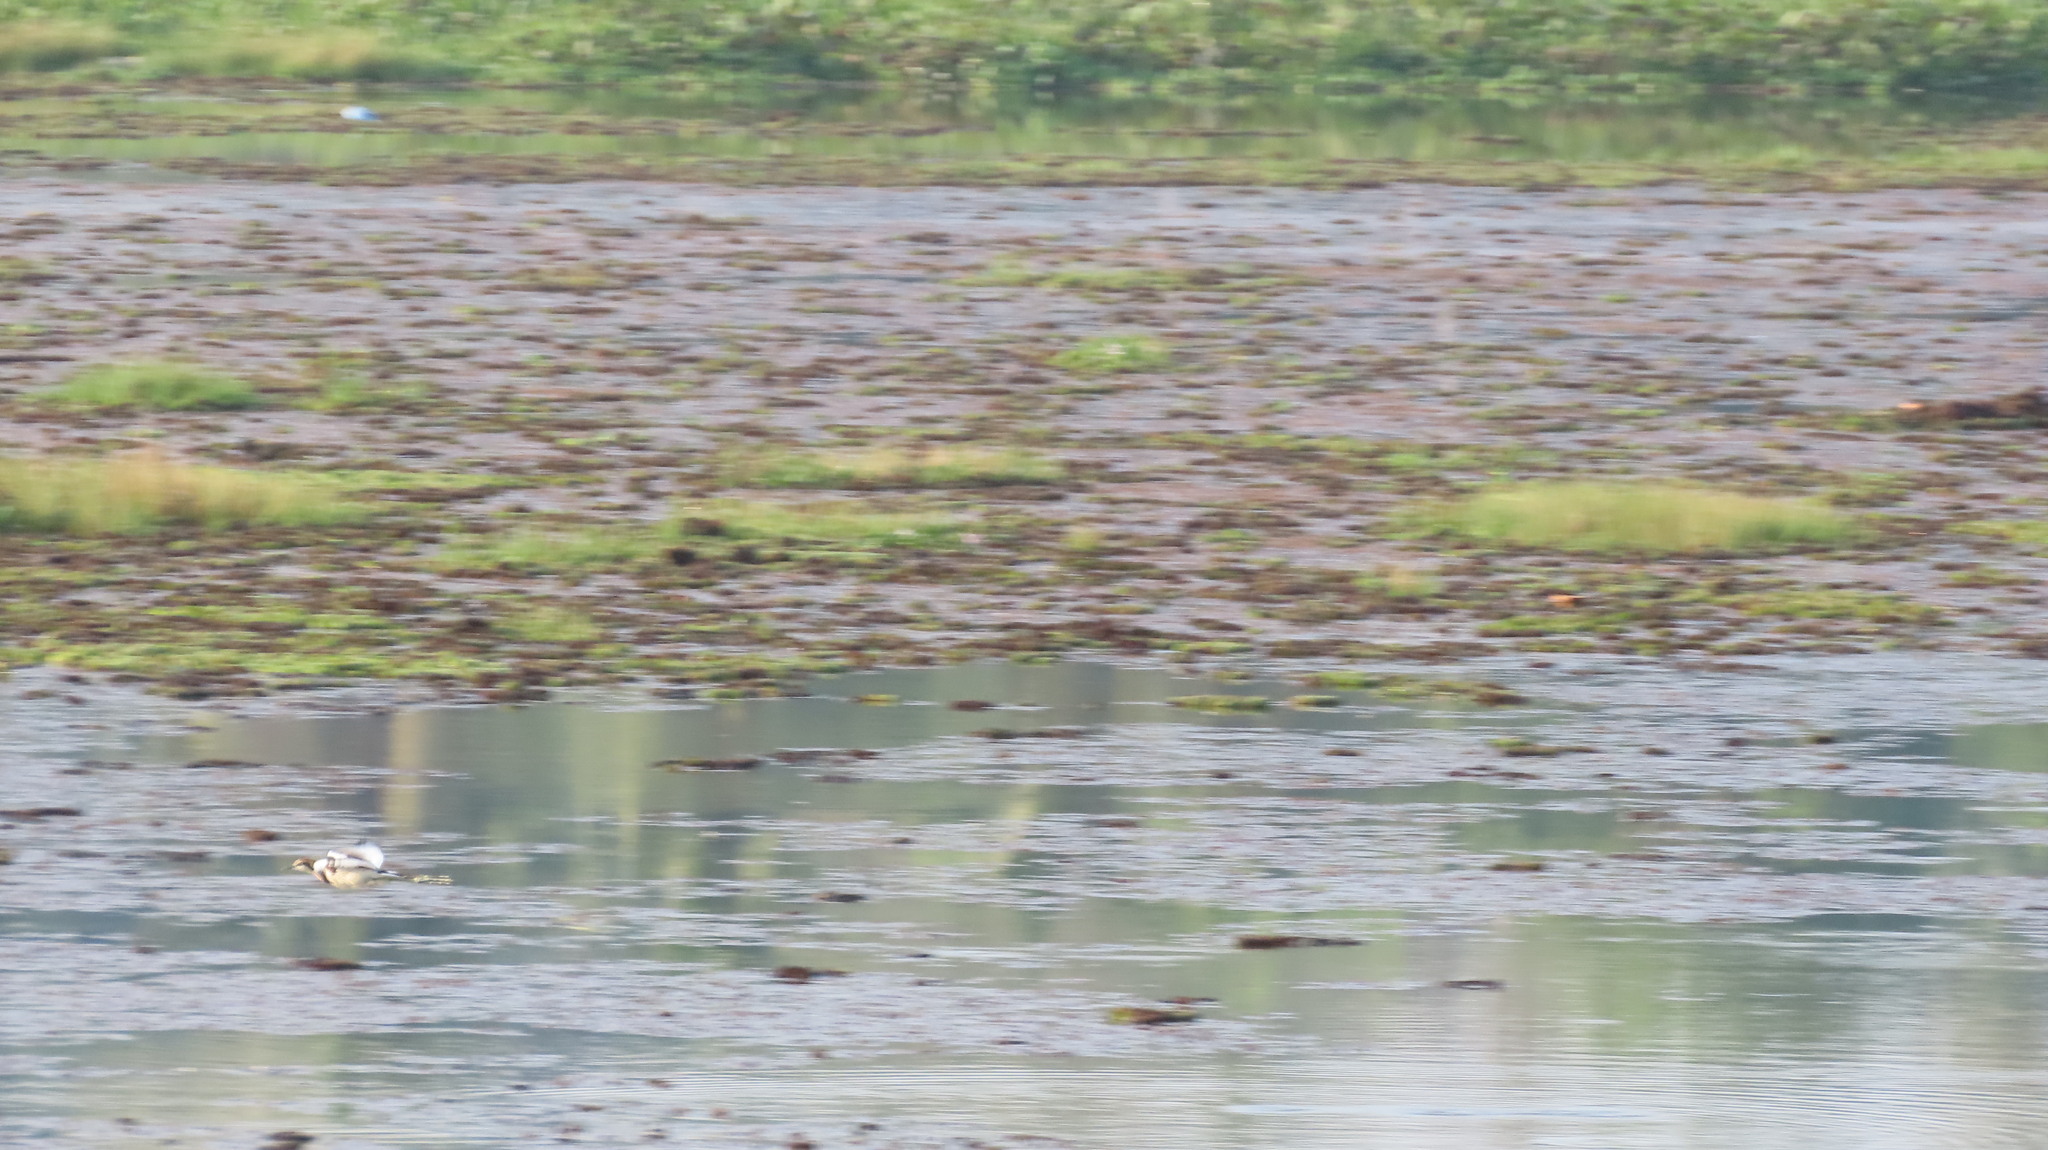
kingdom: Animalia
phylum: Chordata
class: Aves
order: Charadriiformes
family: Jacanidae
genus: Hydrophasianus
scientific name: Hydrophasianus chirurgus
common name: Pheasant-tailed jacana
